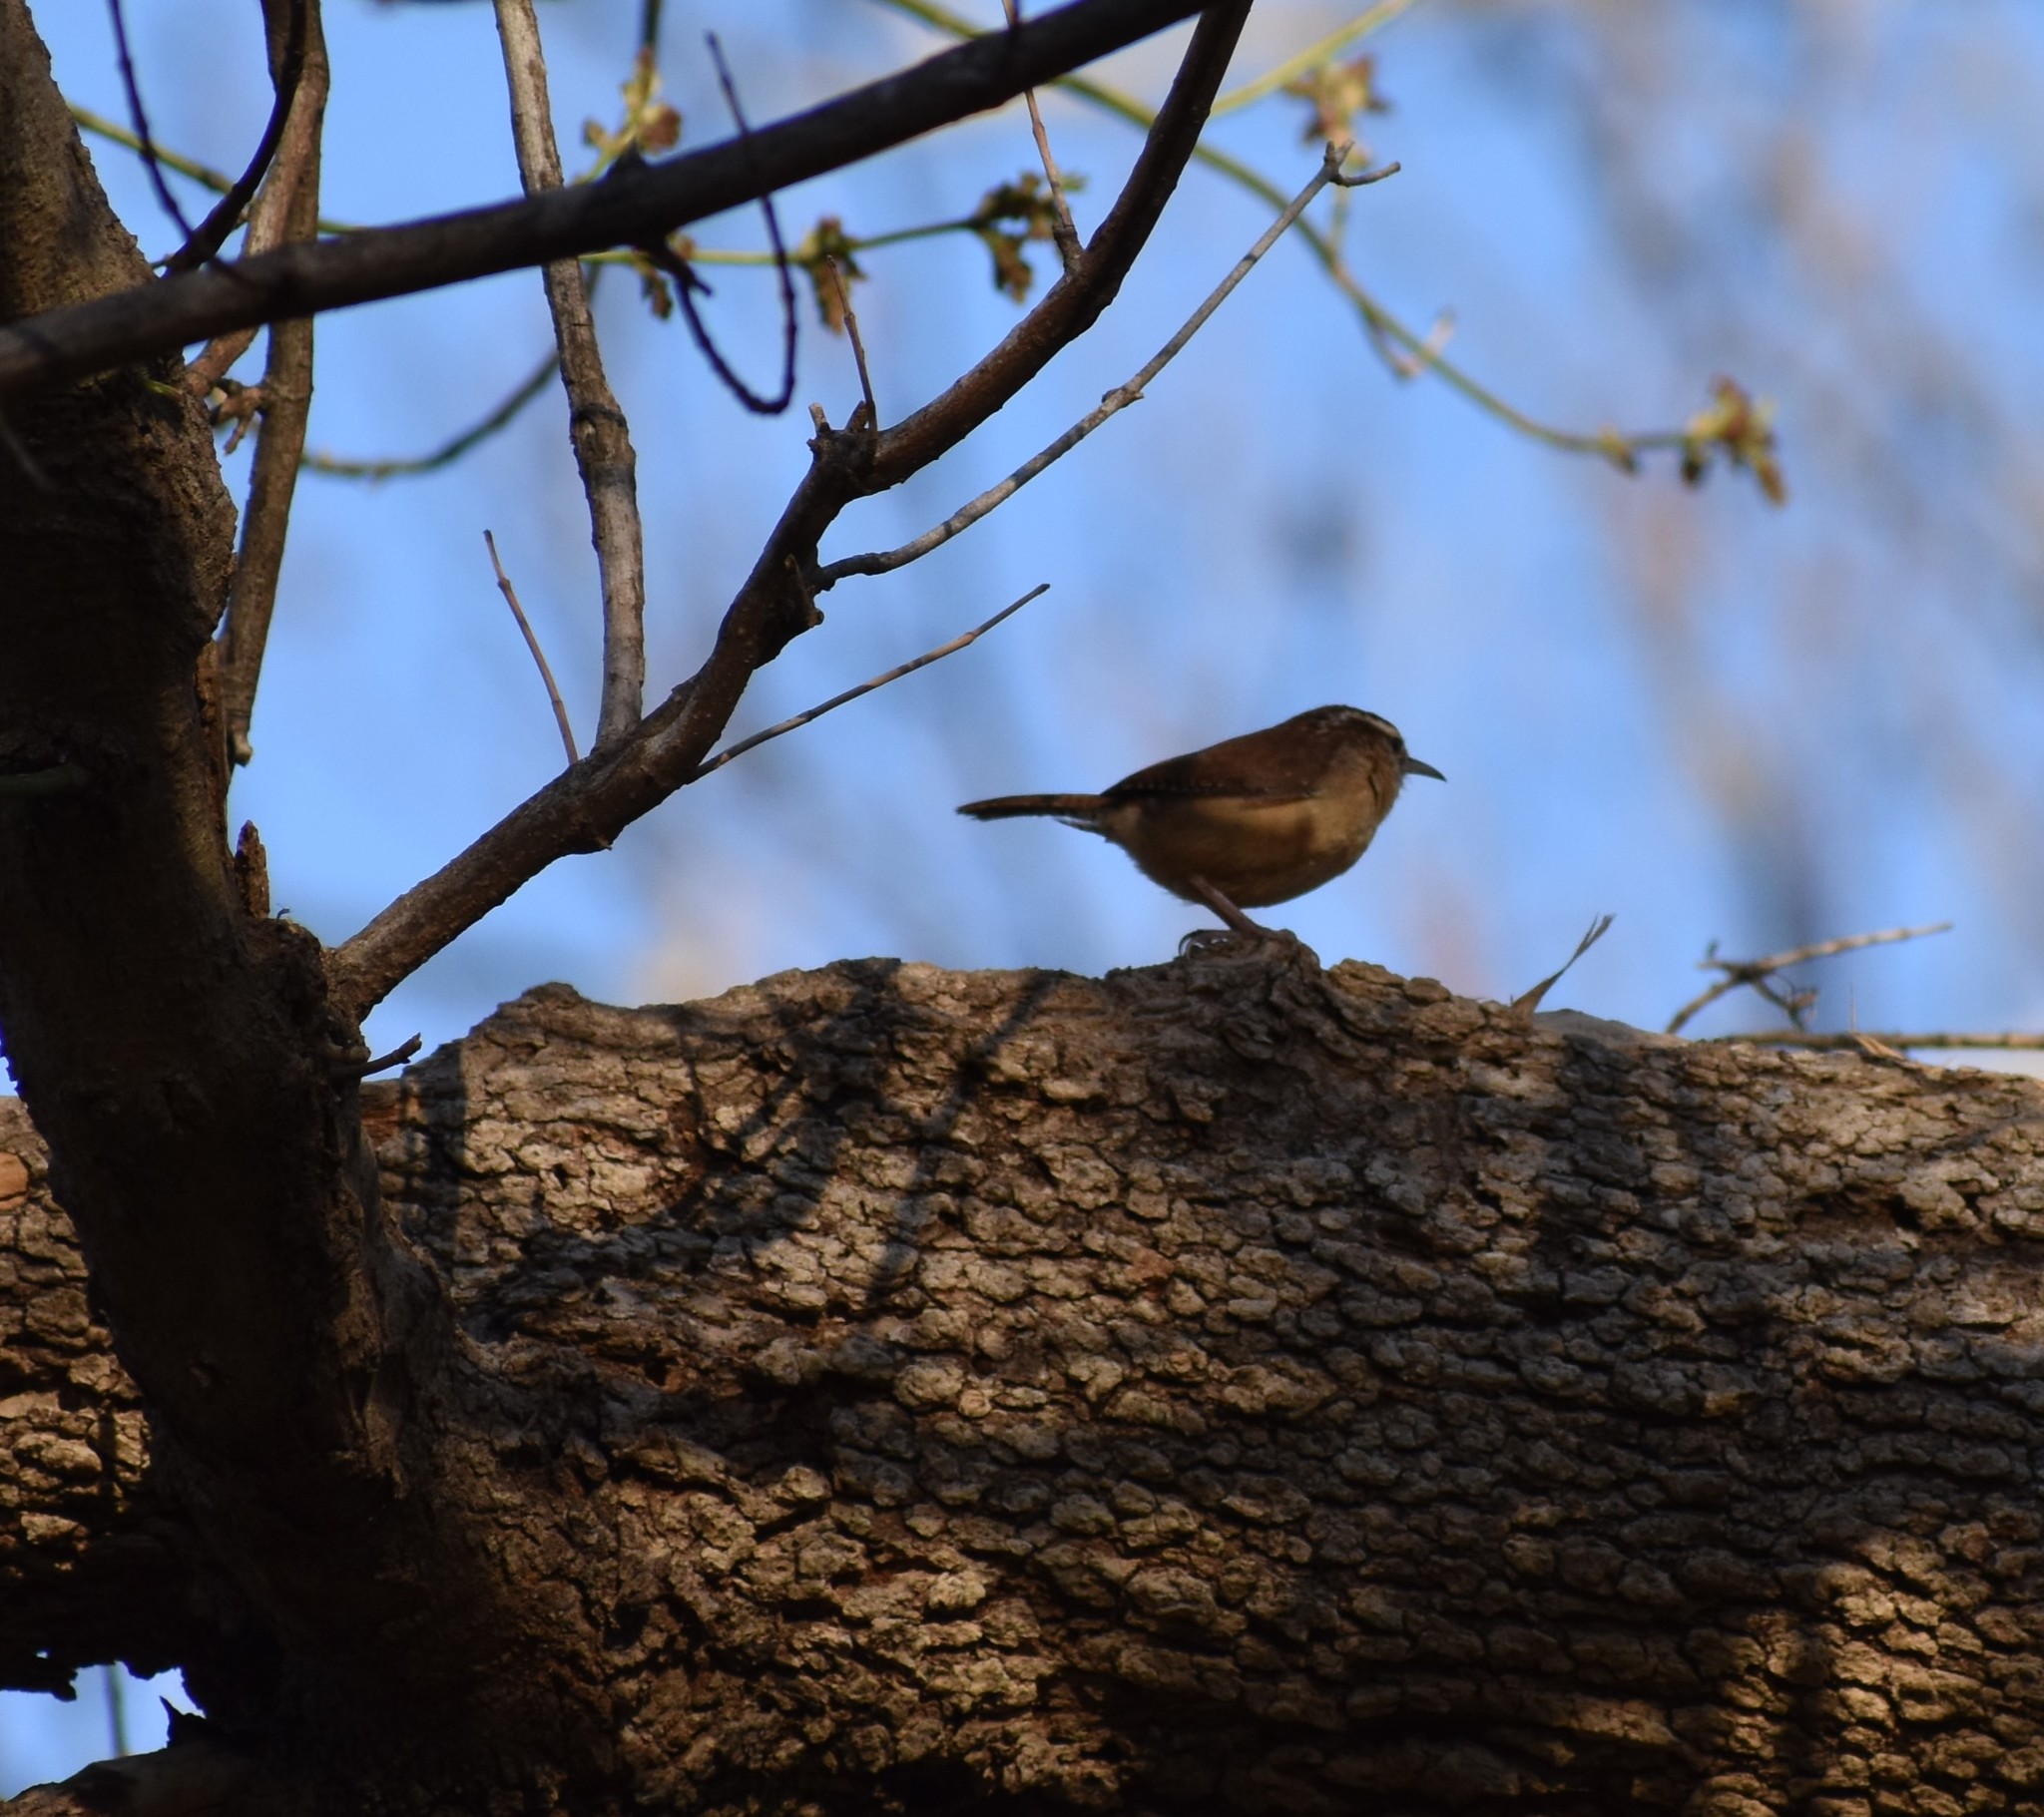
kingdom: Animalia
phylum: Chordata
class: Aves
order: Passeriformes
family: Troglodytidae
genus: Thryothorus
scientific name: Thryothorus ludovicianus
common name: Carolina wren
